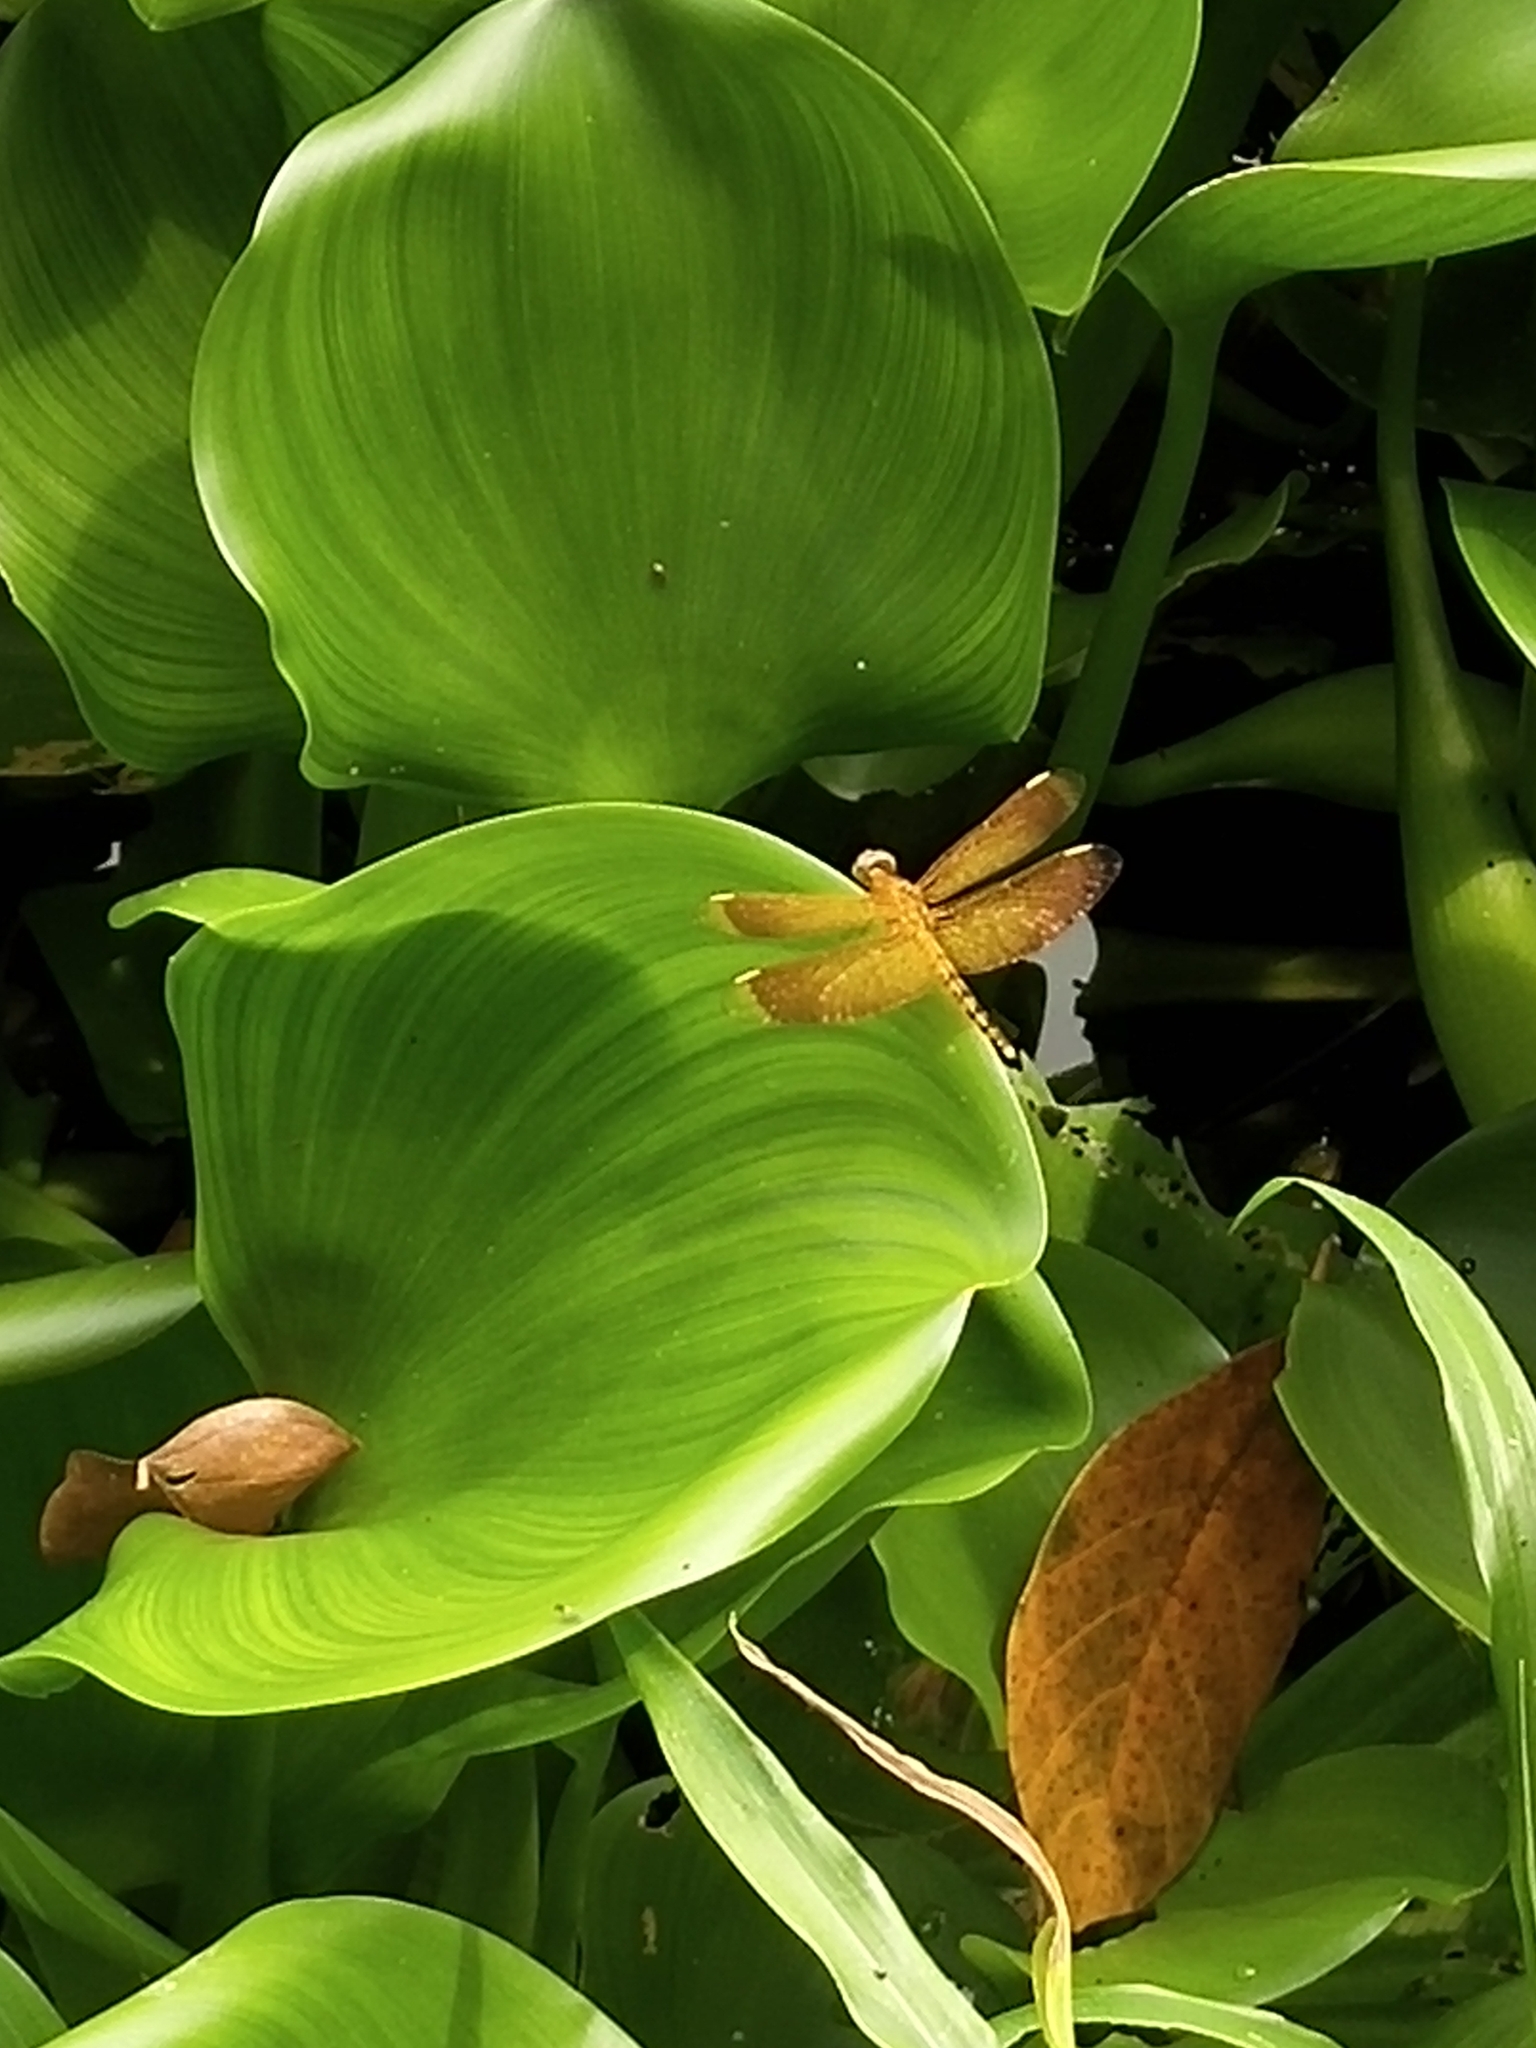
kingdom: Animalia
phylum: Arthropoda
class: Insecta
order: Odonata
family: Libellulidae
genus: Neurothemis
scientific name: Neurothemis terminata
